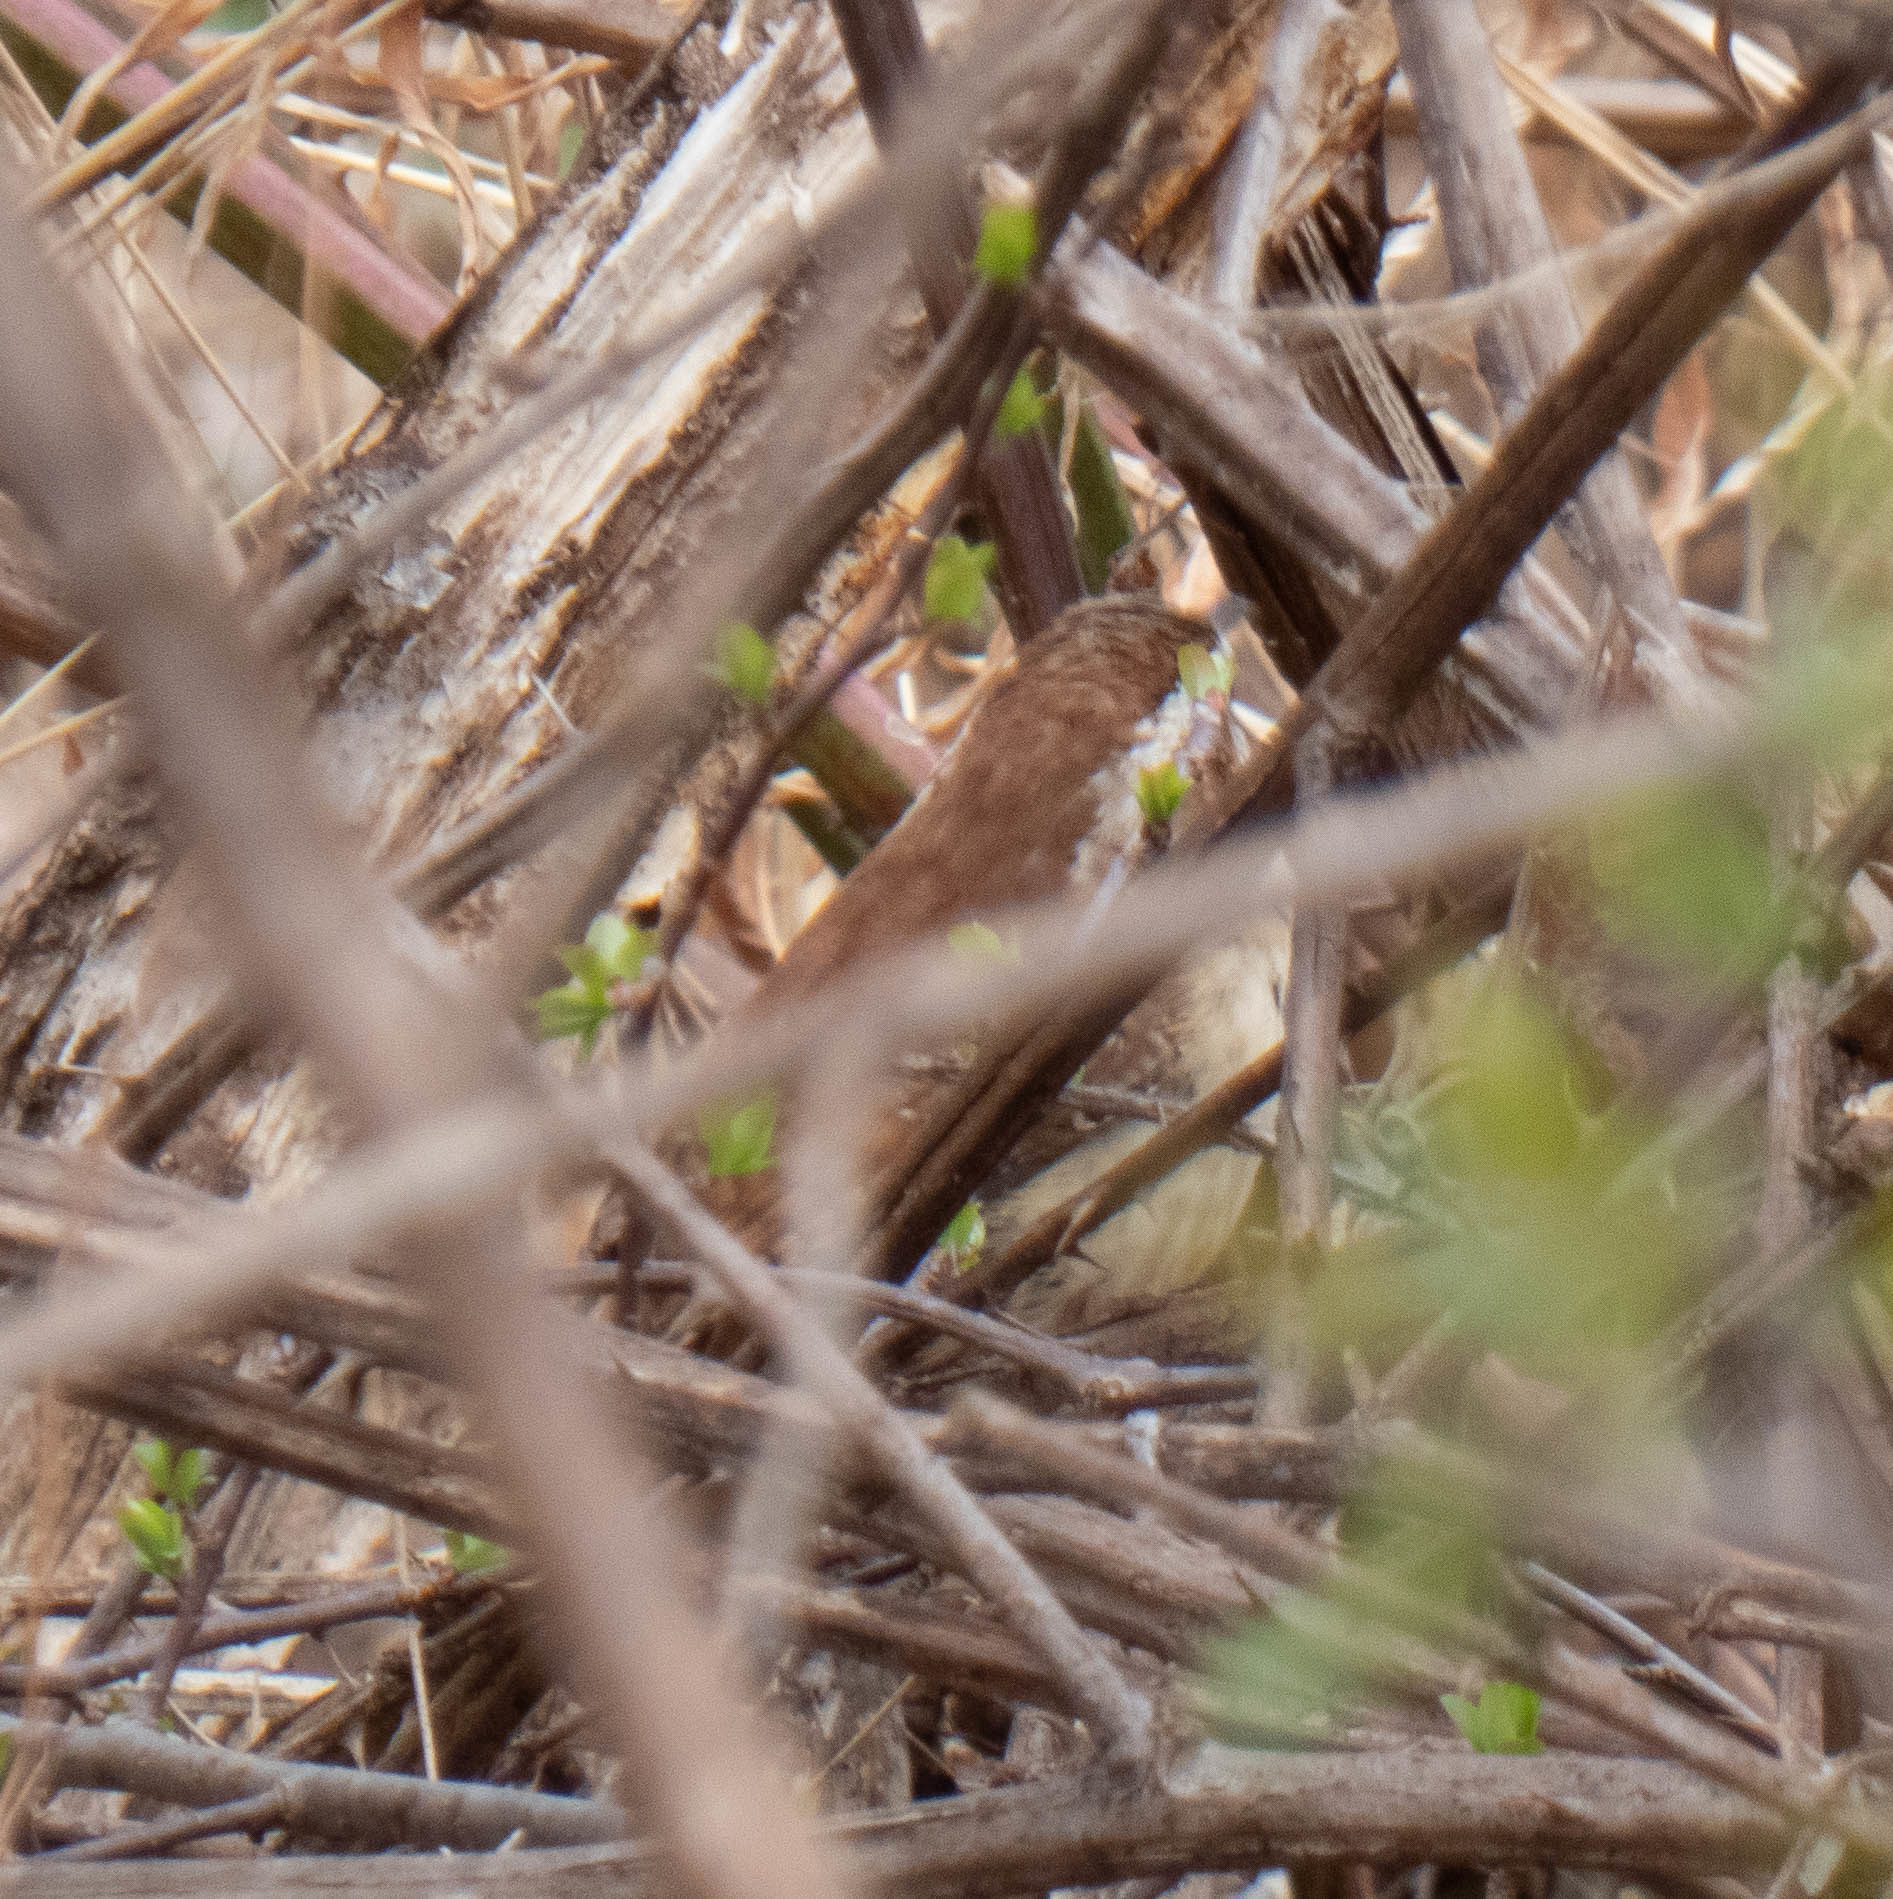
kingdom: Animalia
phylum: Chordata
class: Aves
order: Passeriformes
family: Troglodytidae
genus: Thryothorus
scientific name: Thryothorus ludovicianus
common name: Carolina wren
